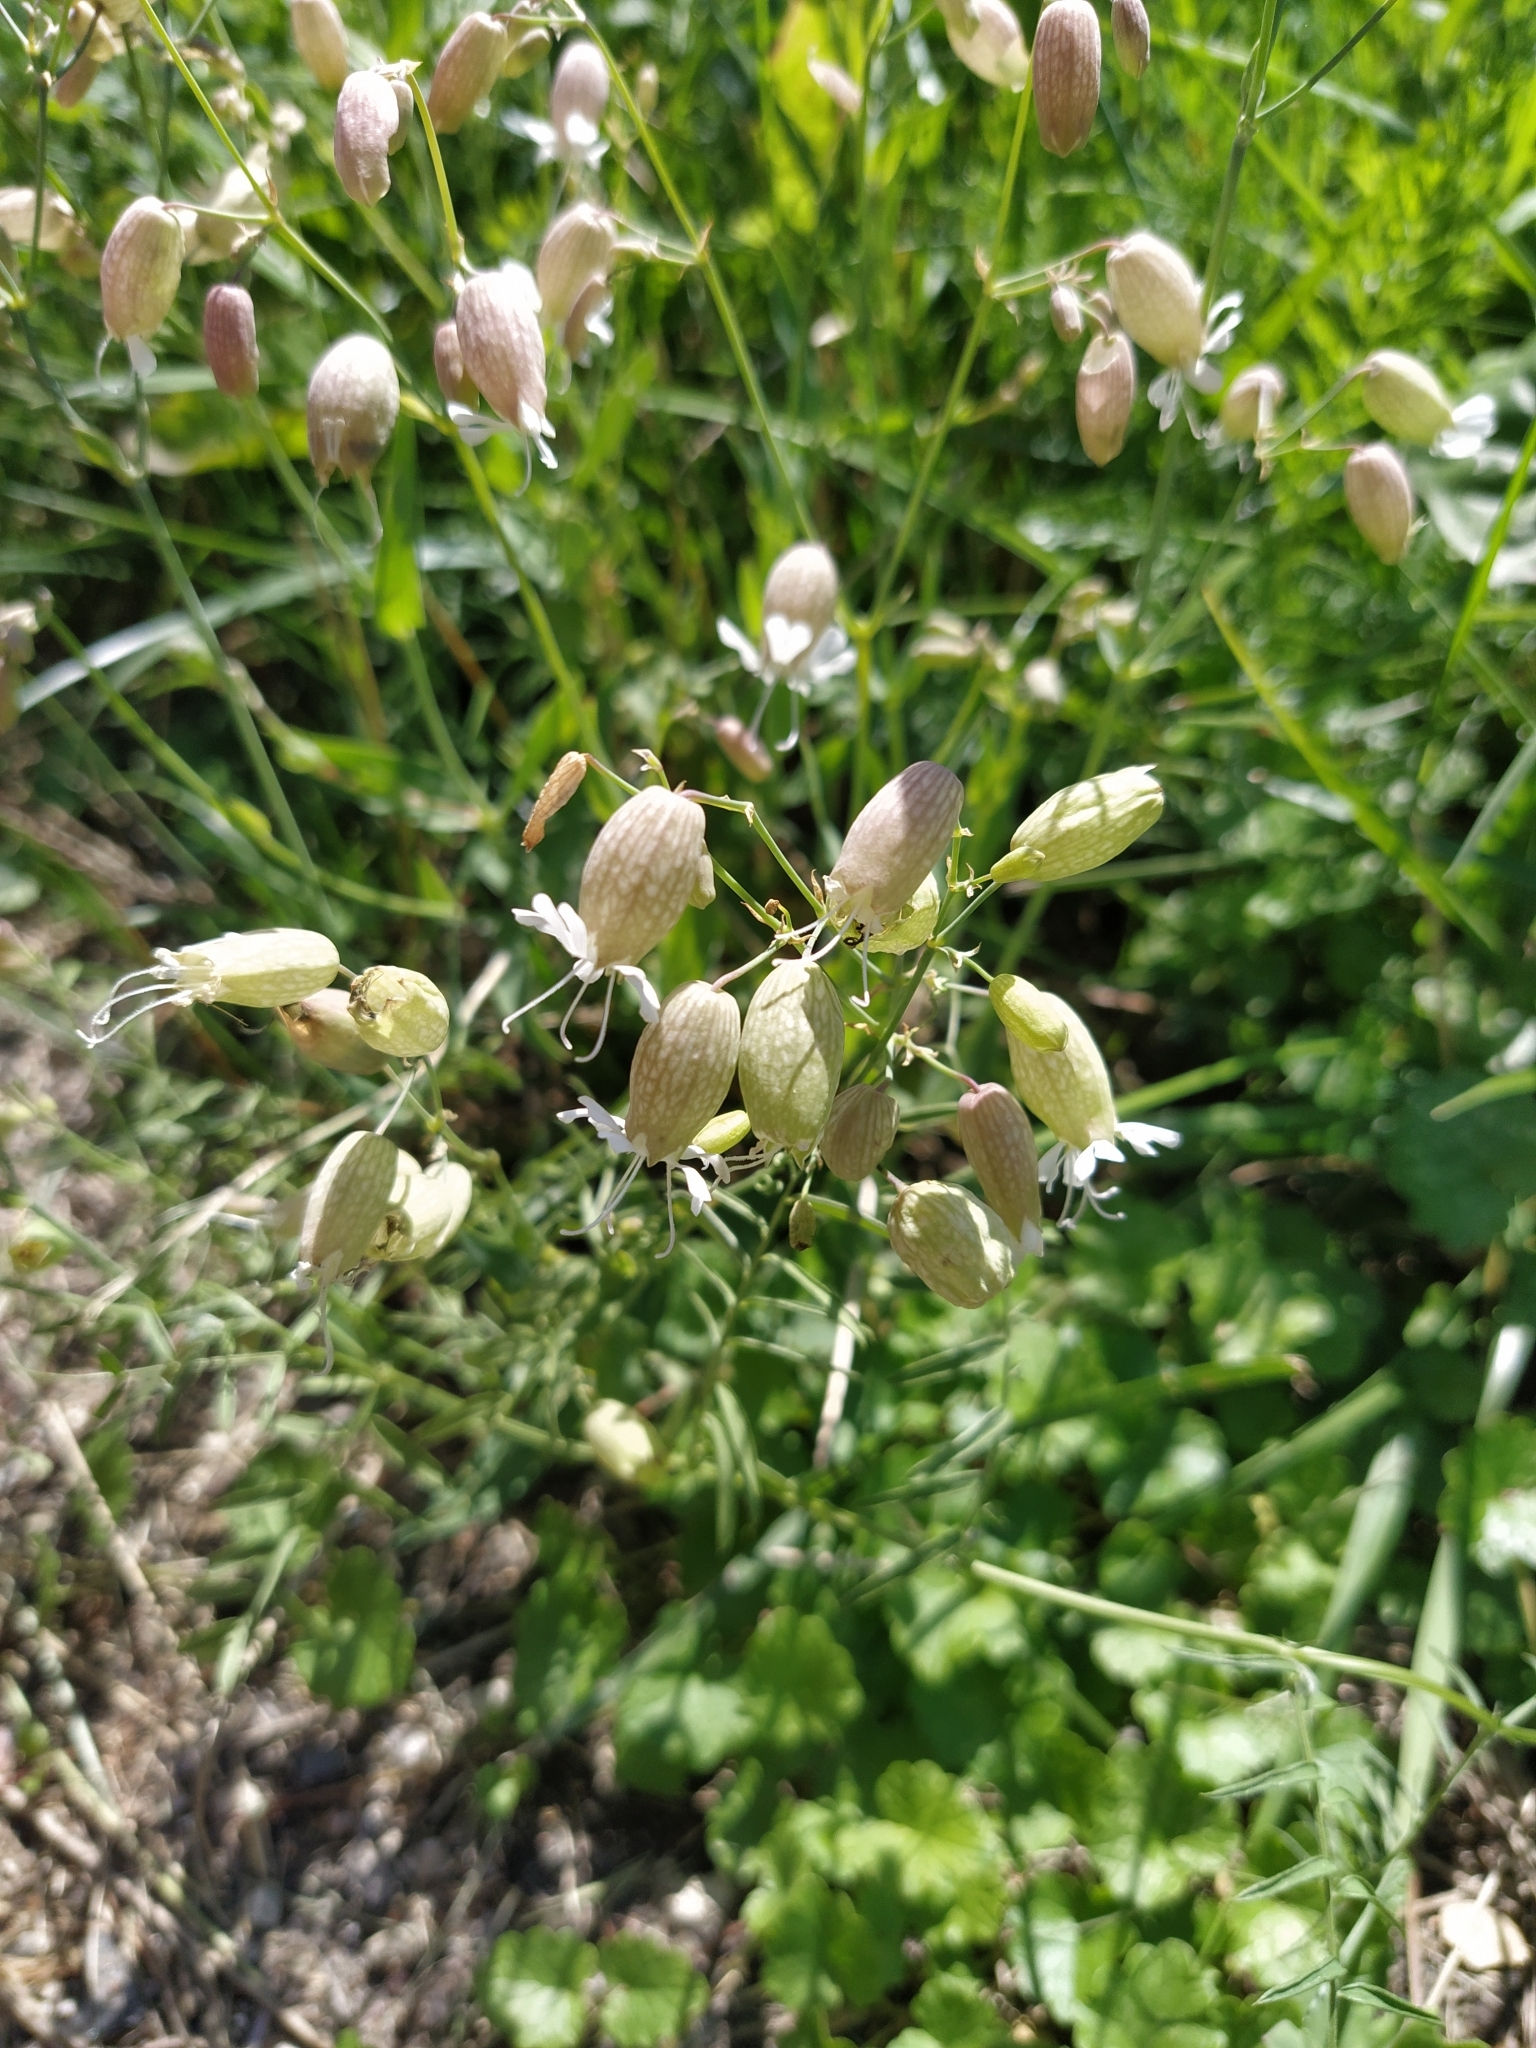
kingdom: Plantae
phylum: Tracheophyta
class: Magnoliopsida
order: Caryophyllales
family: Caryophyllaceae
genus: Silene
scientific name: Silene vulgaris
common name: Bladder campion
